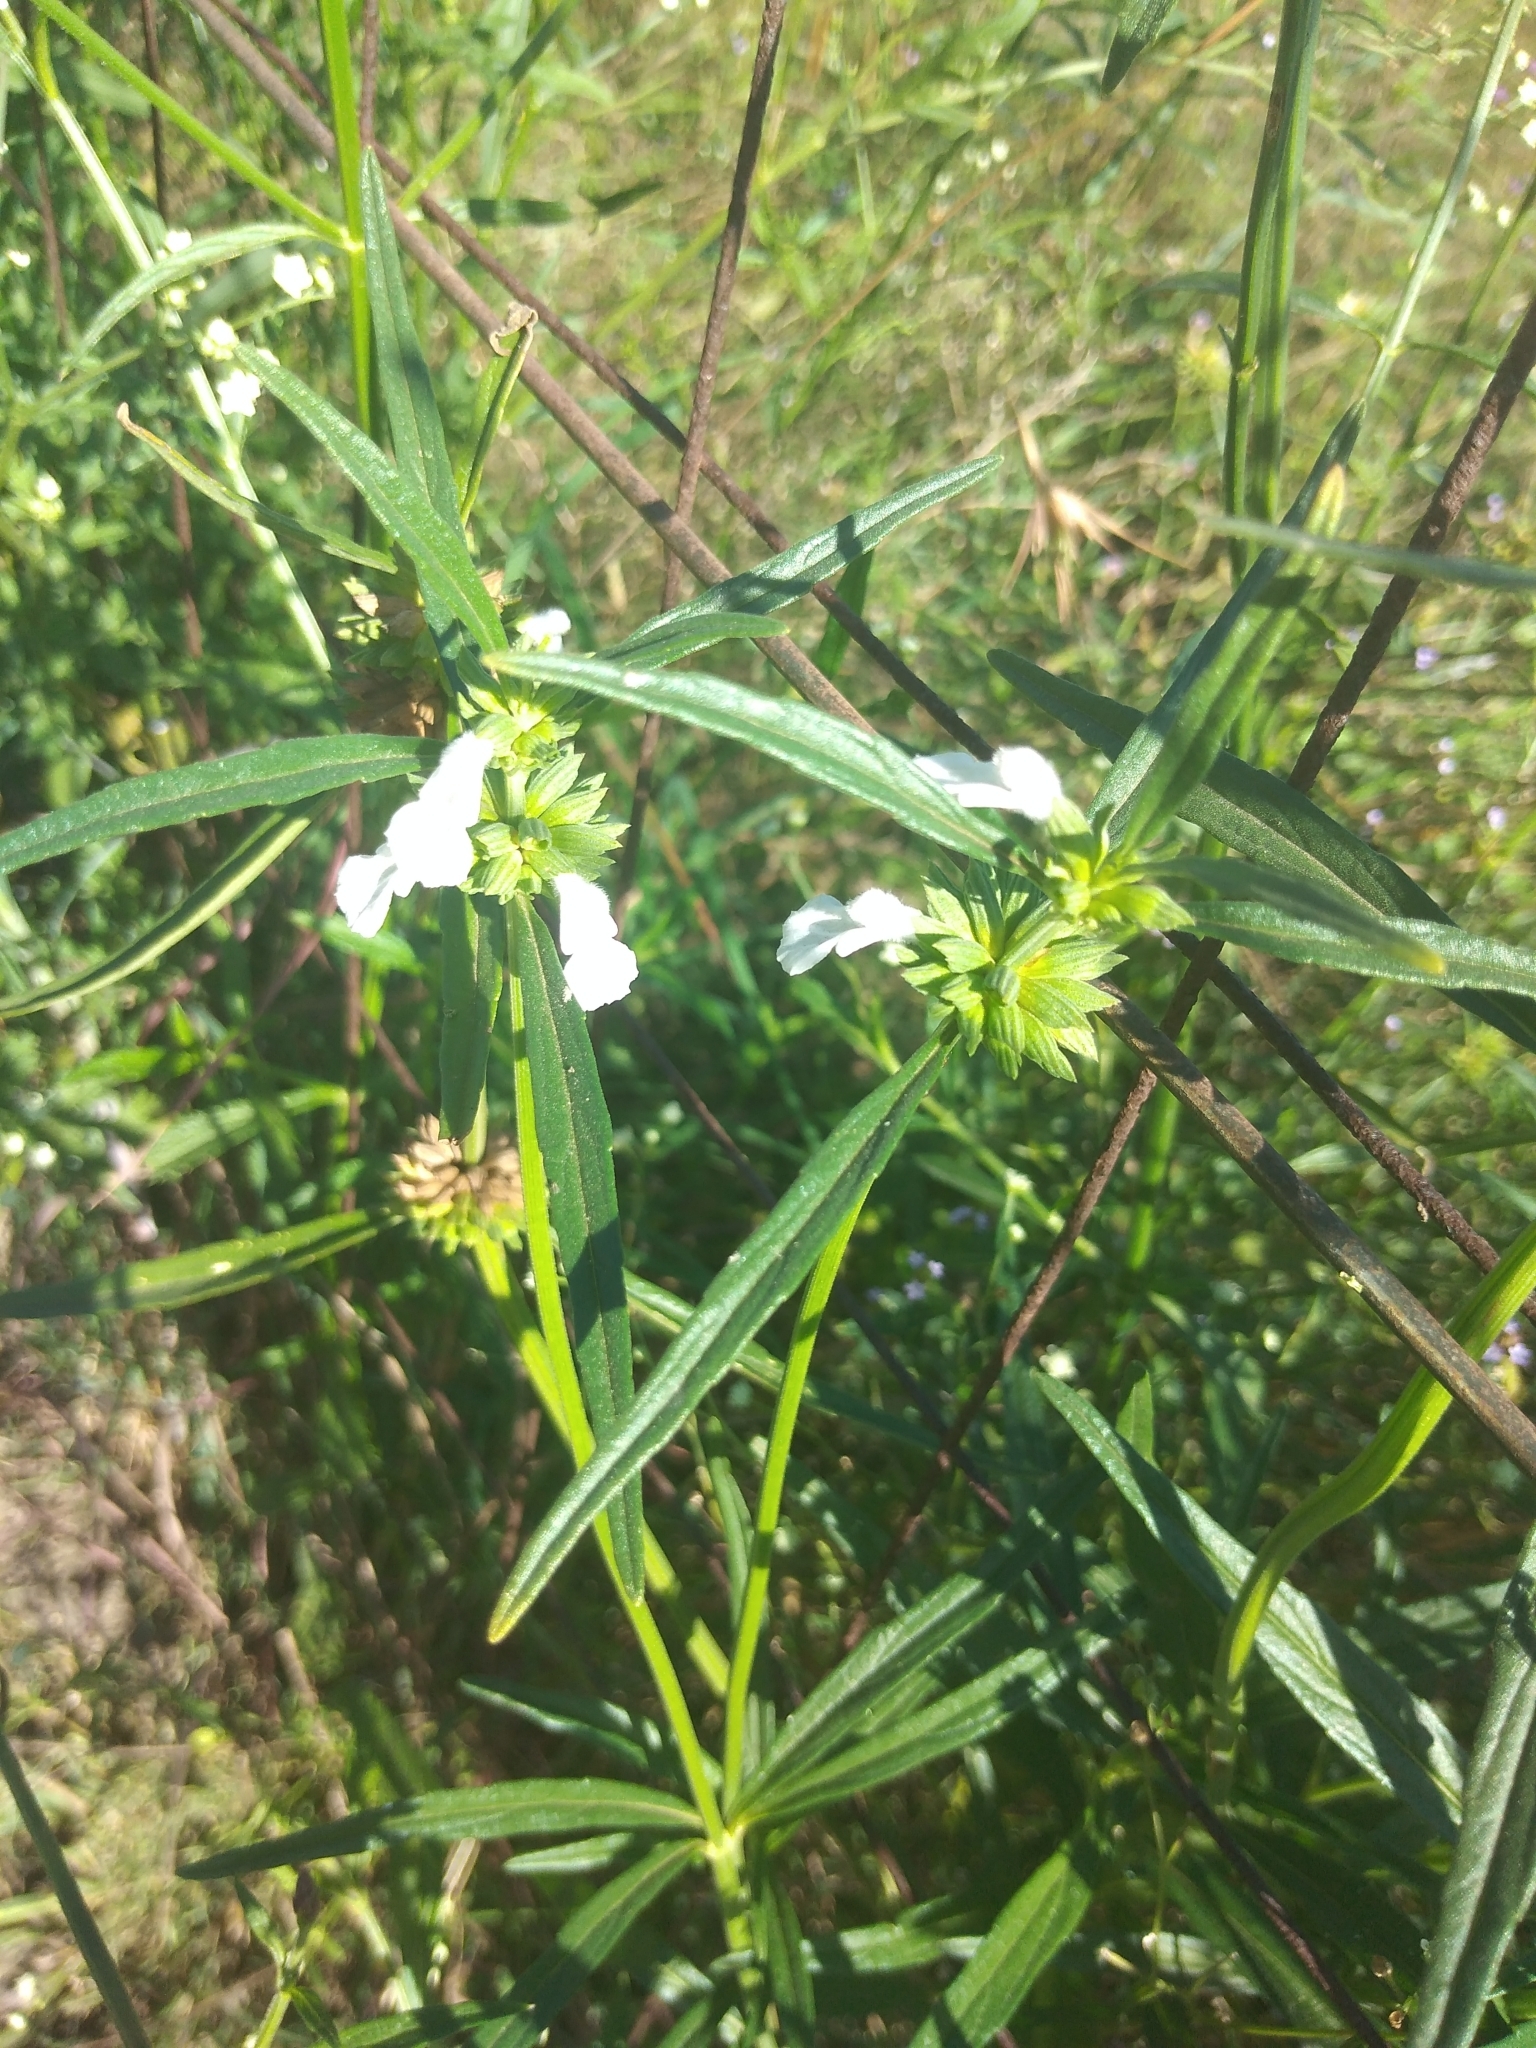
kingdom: Plantae
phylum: Tracheophyta
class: Magnoliopsida
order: Lamiales
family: Lamiaceae
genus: Leucas
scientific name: Leucas lavandulifolia
